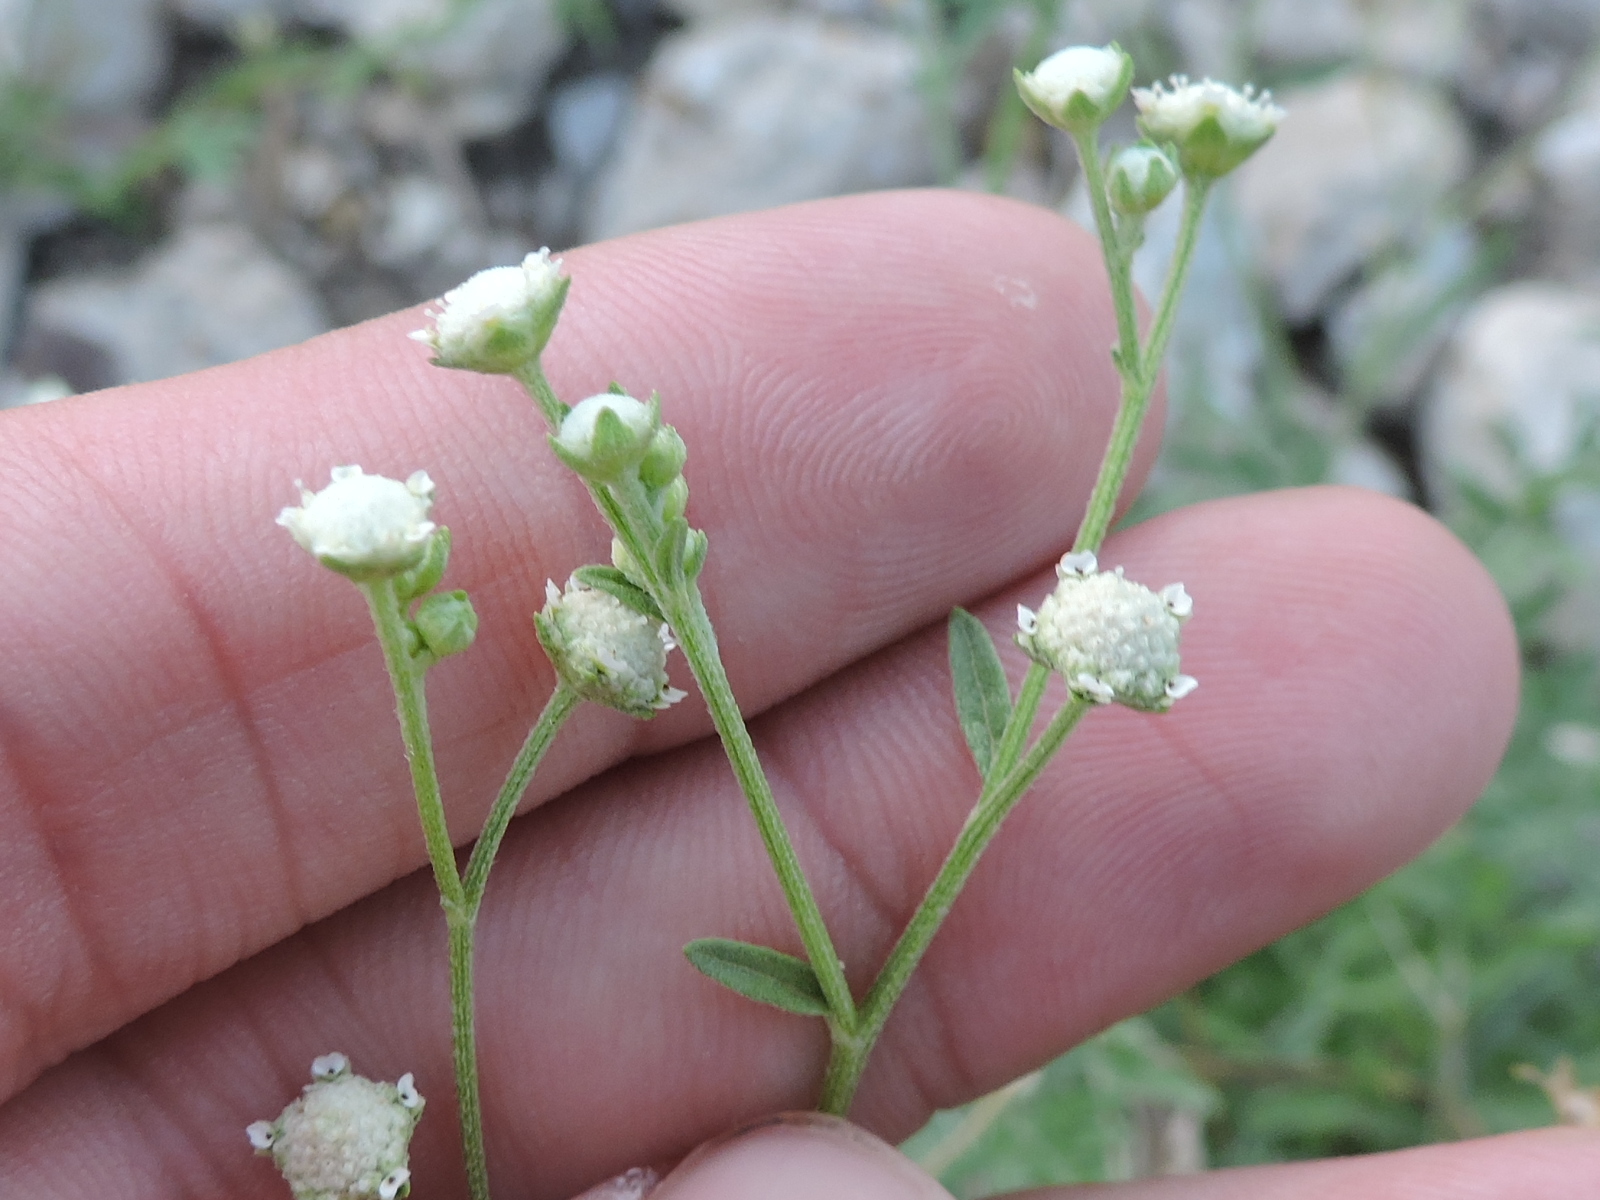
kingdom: Plantae
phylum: Tracheophyta
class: Magnoliopsida
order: Asterales
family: Asteraceae
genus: Parthenium
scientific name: Parthenium hysterophorus
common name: Santa maria feverfew
